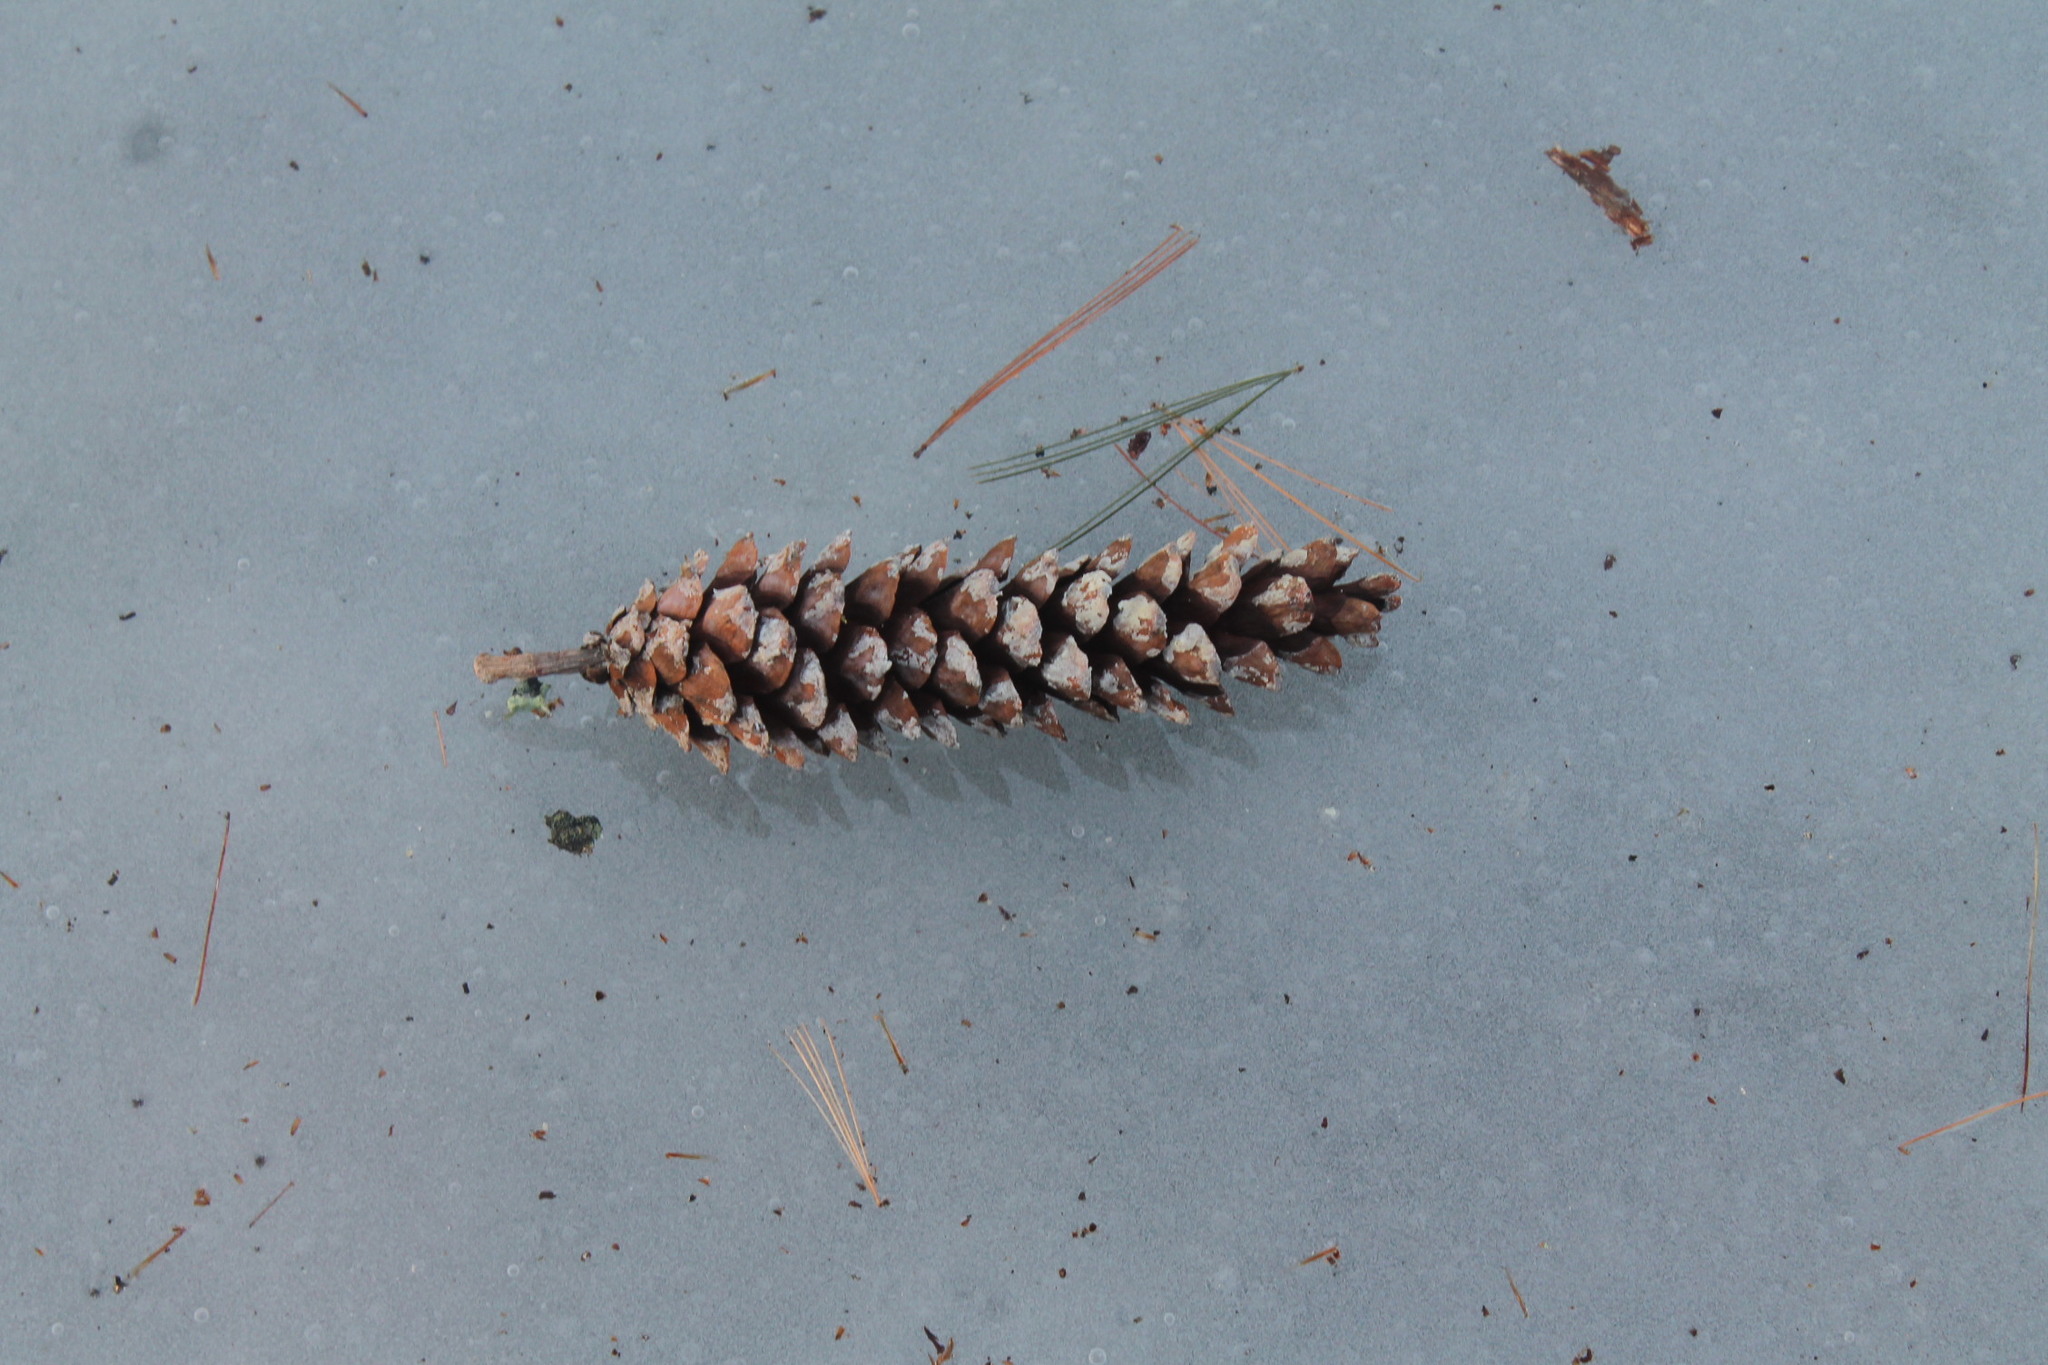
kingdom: Plantae
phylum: Tracheophyta
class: Pinopsida
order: Pinales
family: Pinaceae
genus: Pinus
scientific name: Pinus strobus
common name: Weymouth pine
